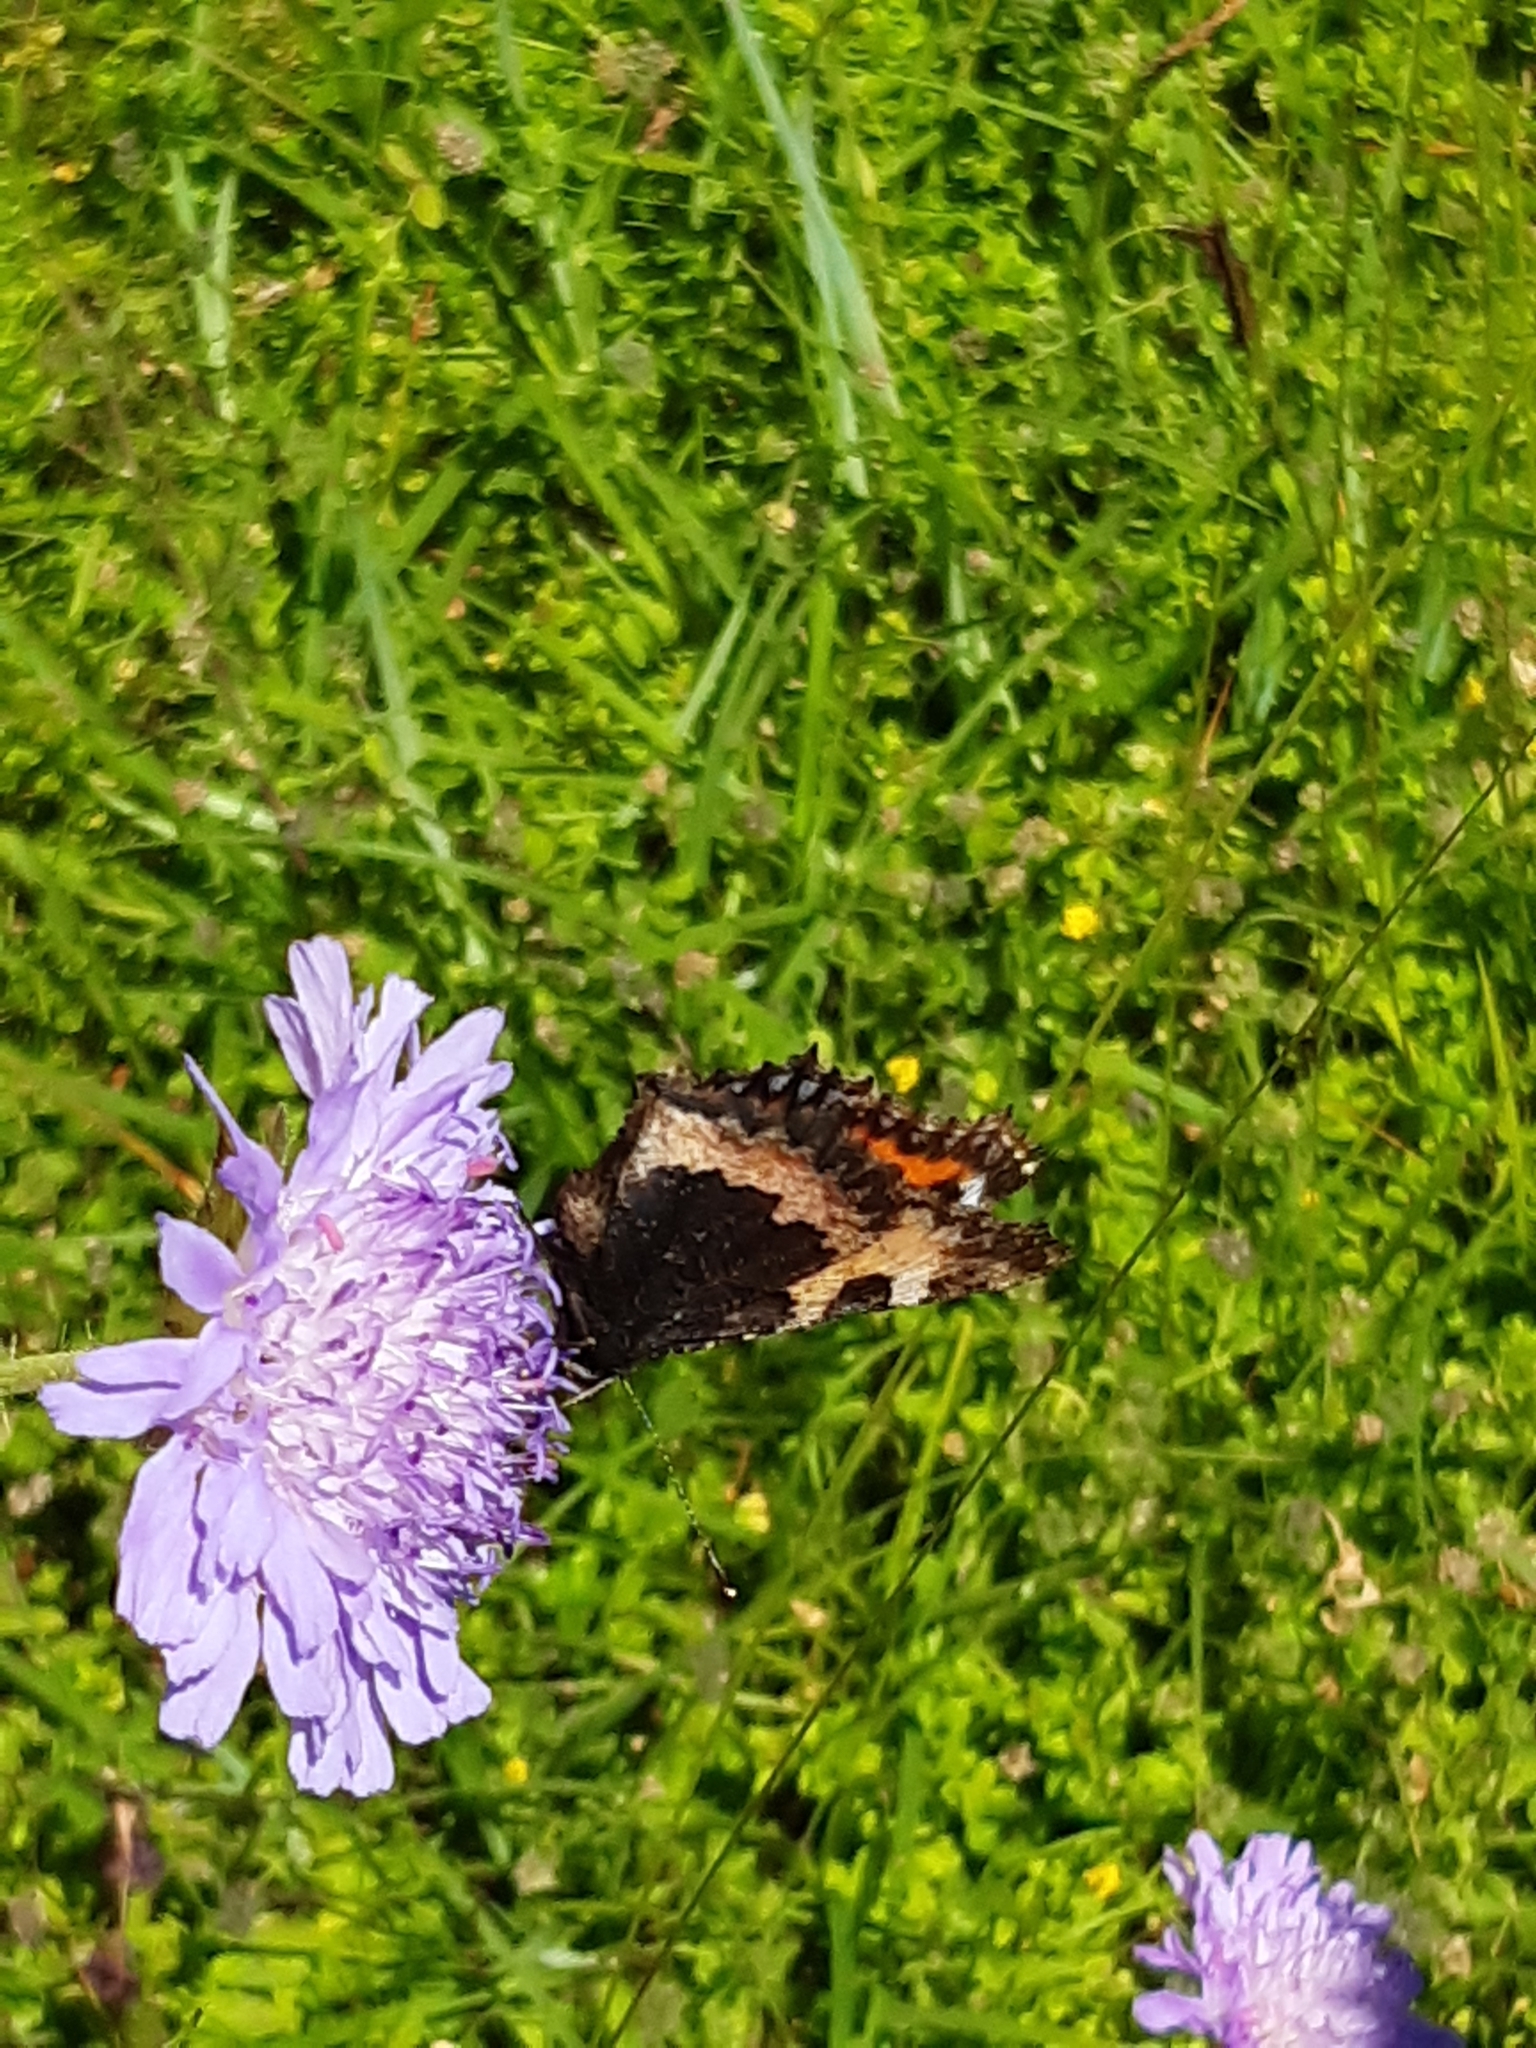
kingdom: Animalia
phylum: Arthropoda
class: Insecta
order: Lepidoptera
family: Nymphalidae
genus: Aglais
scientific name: Aglais urticae
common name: Small tortoiseshell
